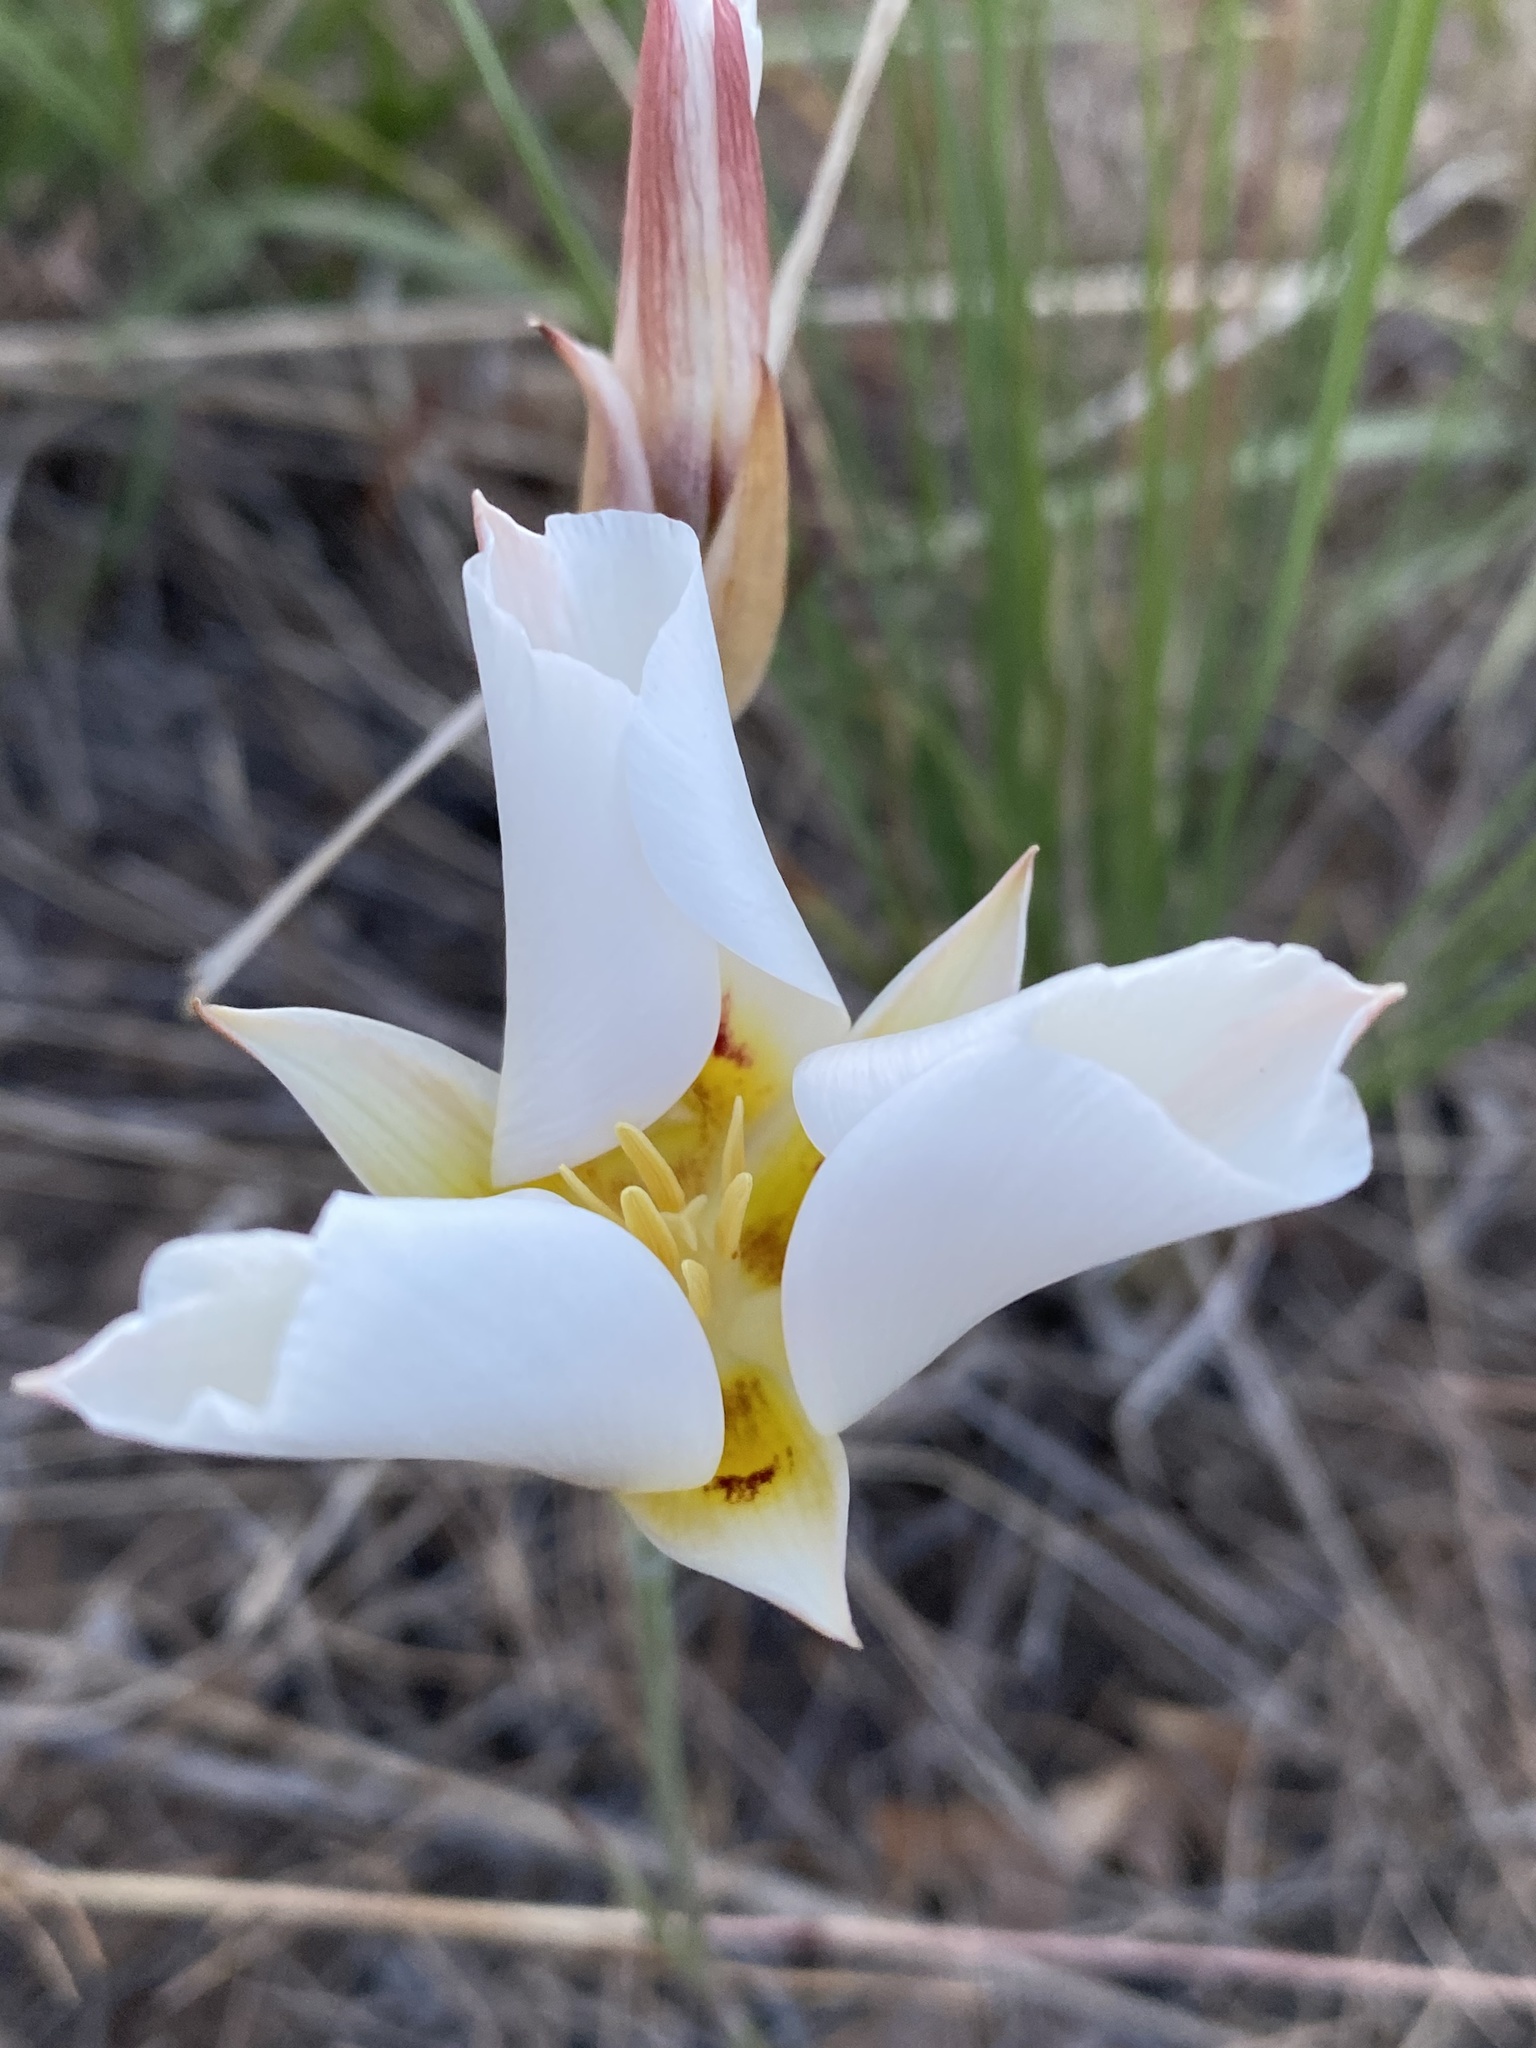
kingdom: Plantae
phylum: Tracheophyta
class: Liliopsida
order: Liliales
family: Liliaceae
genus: Calochortus
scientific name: Calochortus nuttallii
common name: Sego-lily
